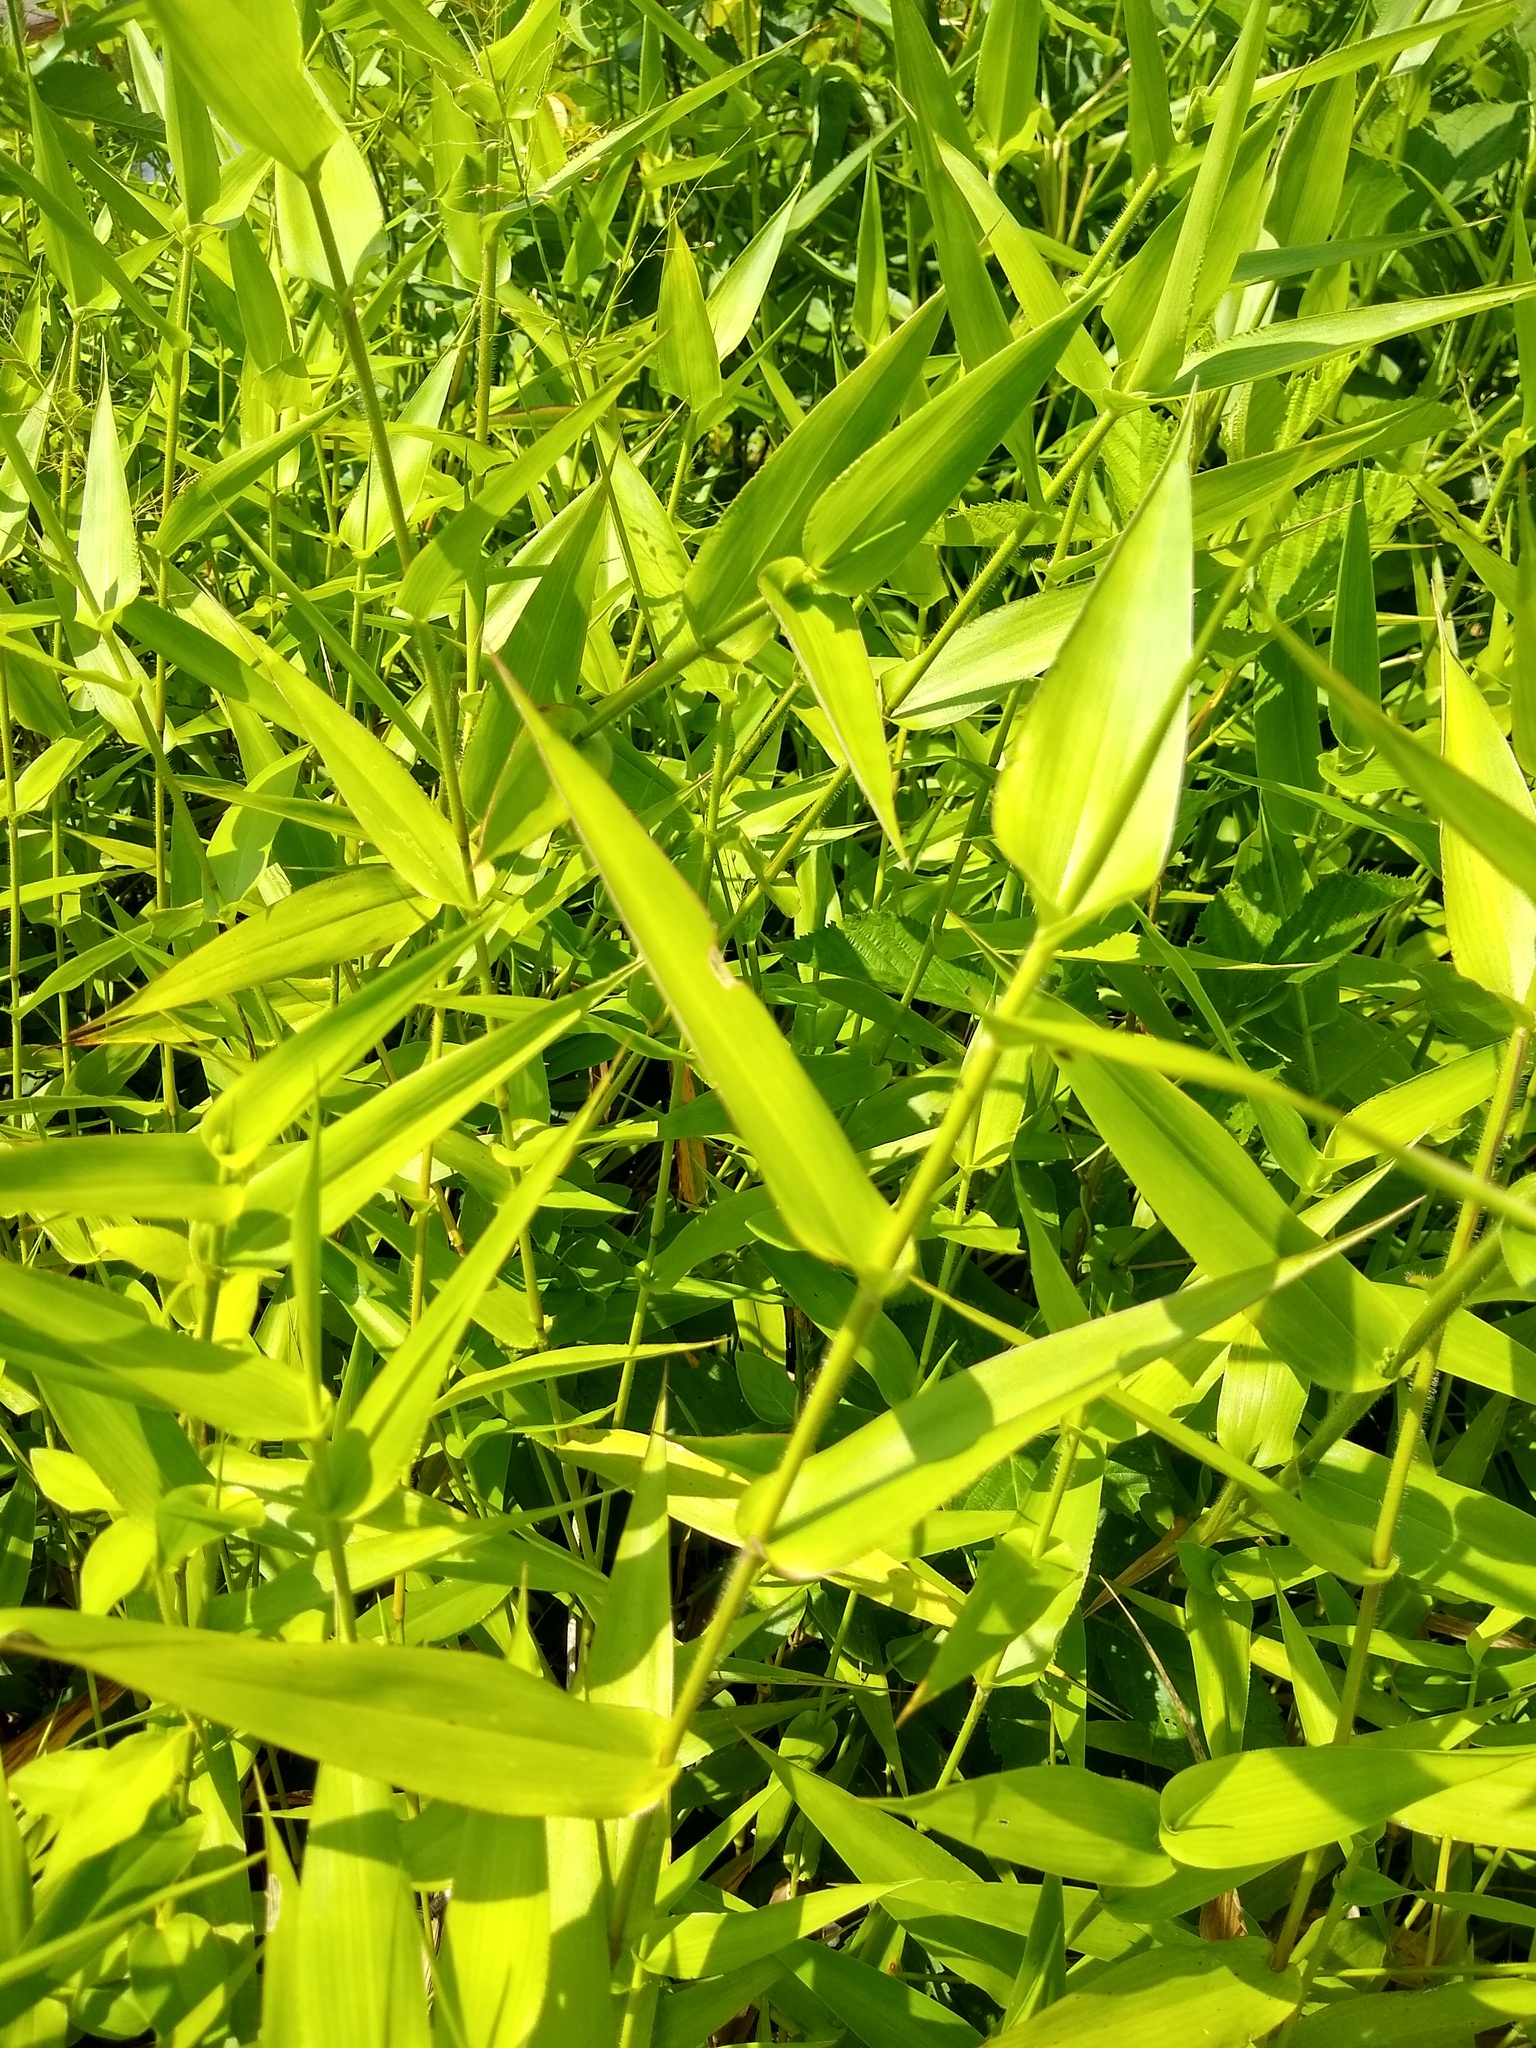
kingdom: Plantae
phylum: Tracheophyta
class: Liliopsida
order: Poales
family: Poaceae
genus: Dichanthelium
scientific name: Dichanthelium clandestinum
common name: Deer-tongue grass
